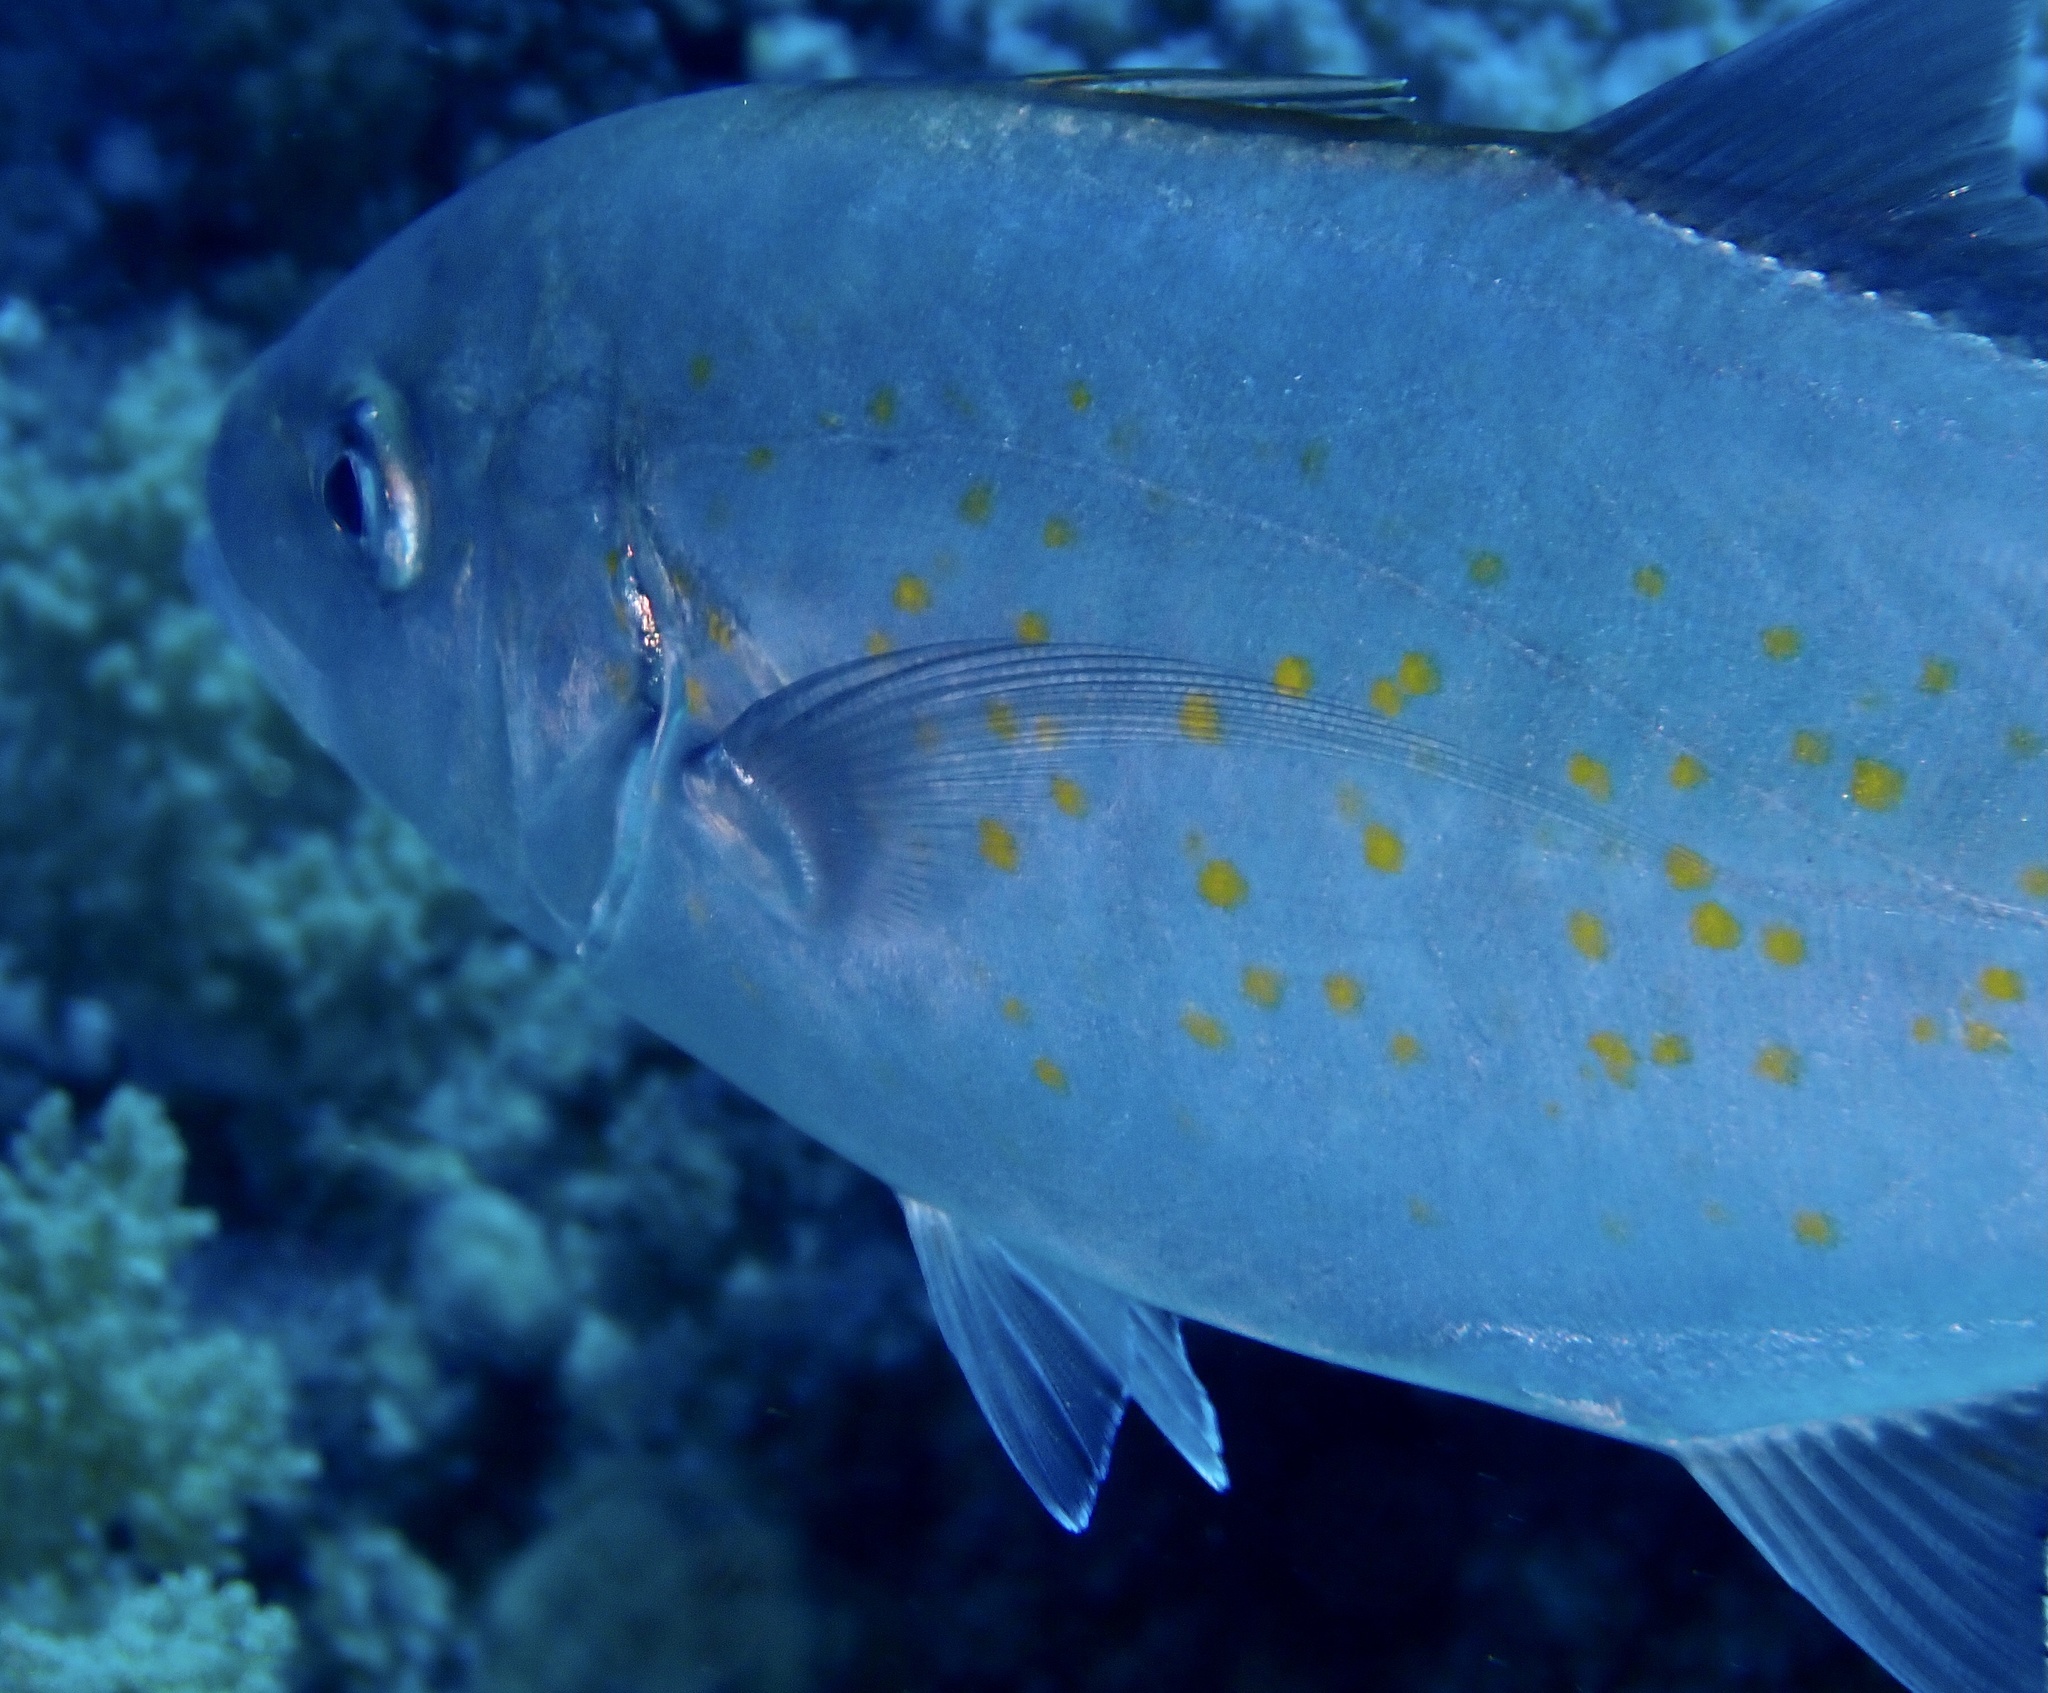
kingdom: Animalia
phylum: Chordata
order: Perciformes
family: Carangidae
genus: Flavocaranx
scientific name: Flavocaranx bajad
